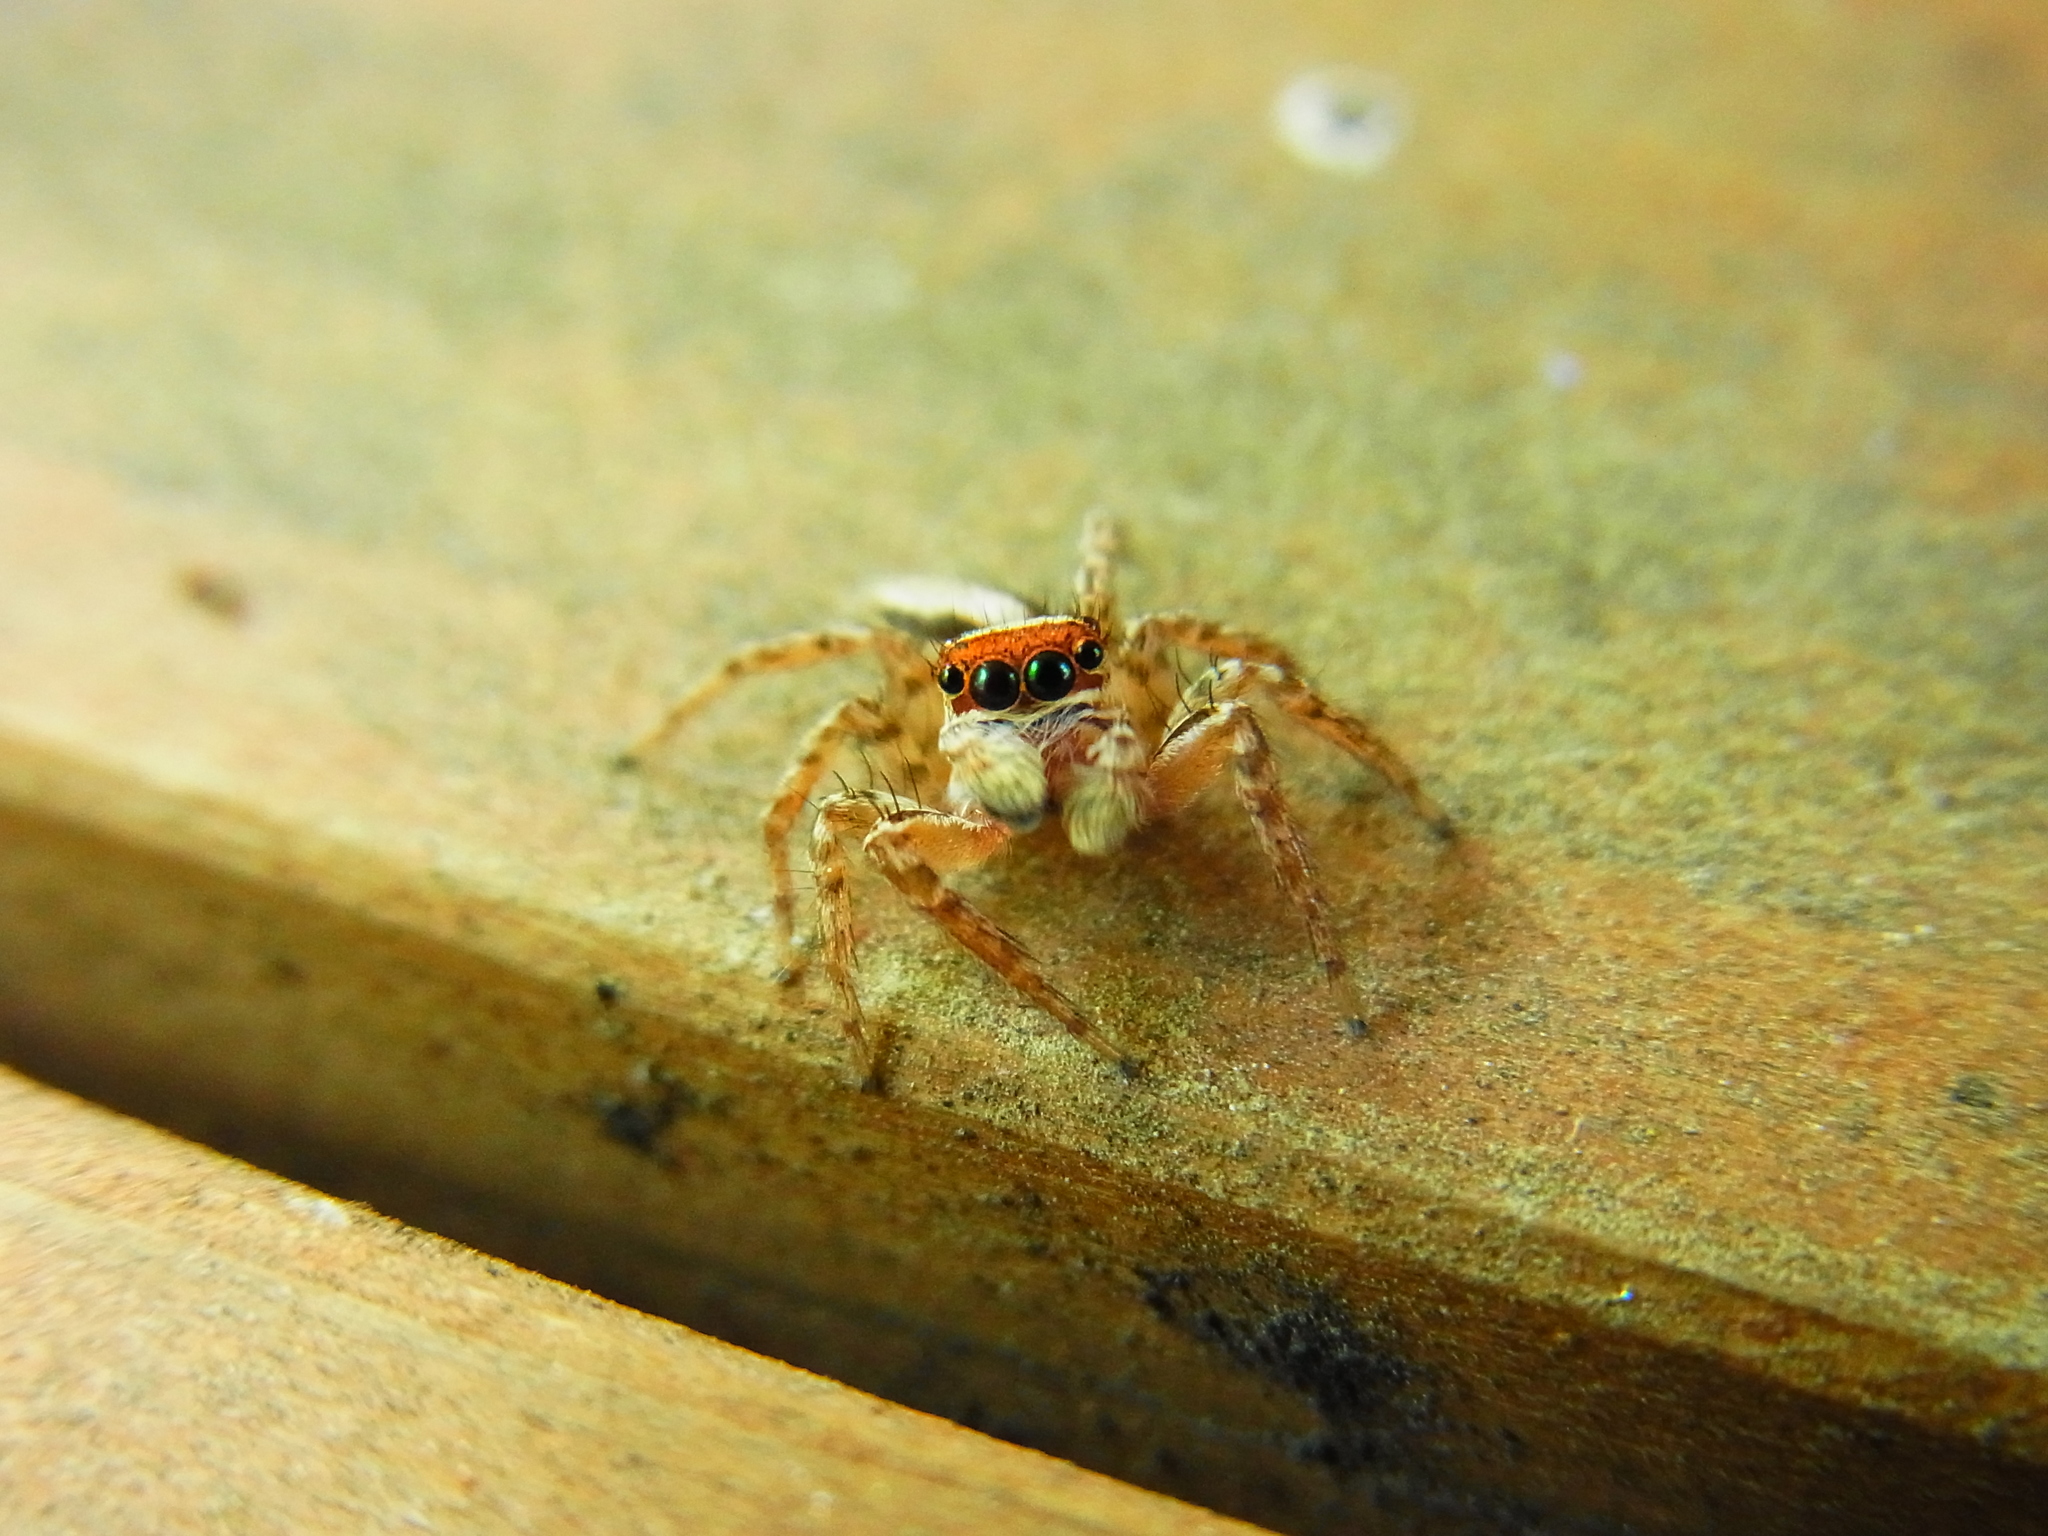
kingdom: Animalia
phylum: Arthropoda
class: Arachnida
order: Araneae
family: Salticidae
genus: Plexippus
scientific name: Plexippus setipes
